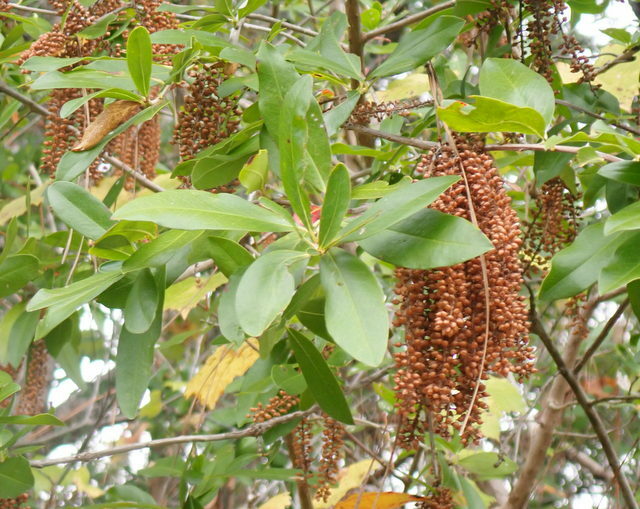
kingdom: Plantae
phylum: Tracheophyta
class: Magnoliopsida
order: Ericales
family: Cyrillaceae
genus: Cyrilla
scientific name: Cyrilla racemiflora
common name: Black titi
